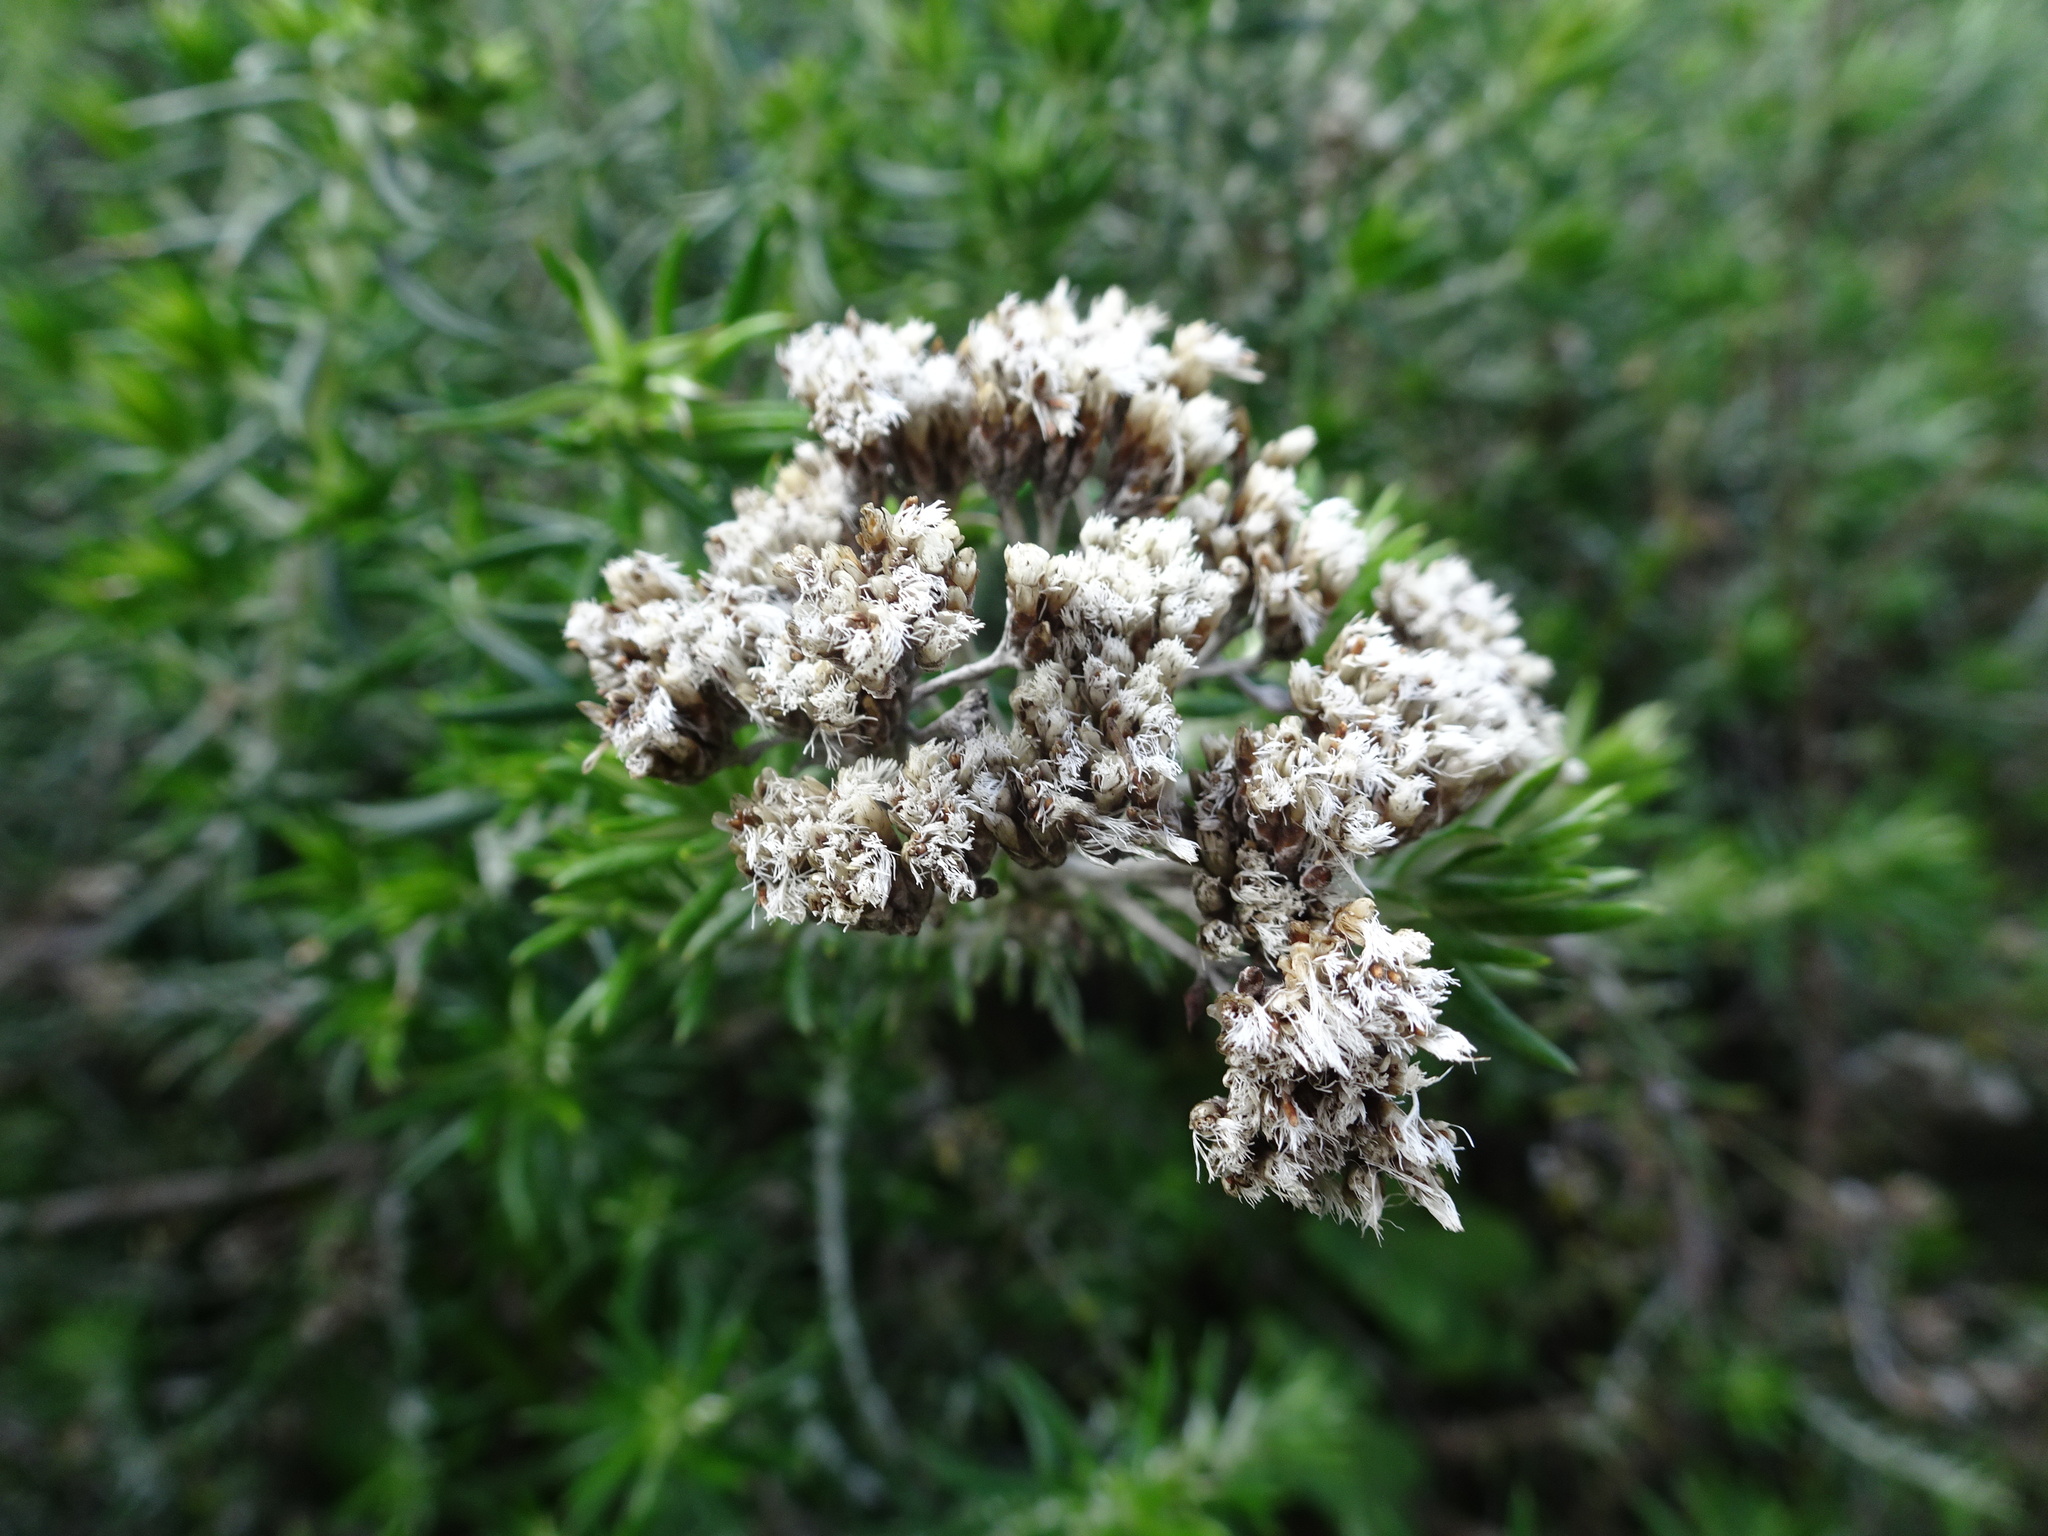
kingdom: Plantae
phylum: Tracheophyta
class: Magnoliopsida
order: Asterales
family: Asteraceae
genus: Metalasia
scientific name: Metalasia densa
